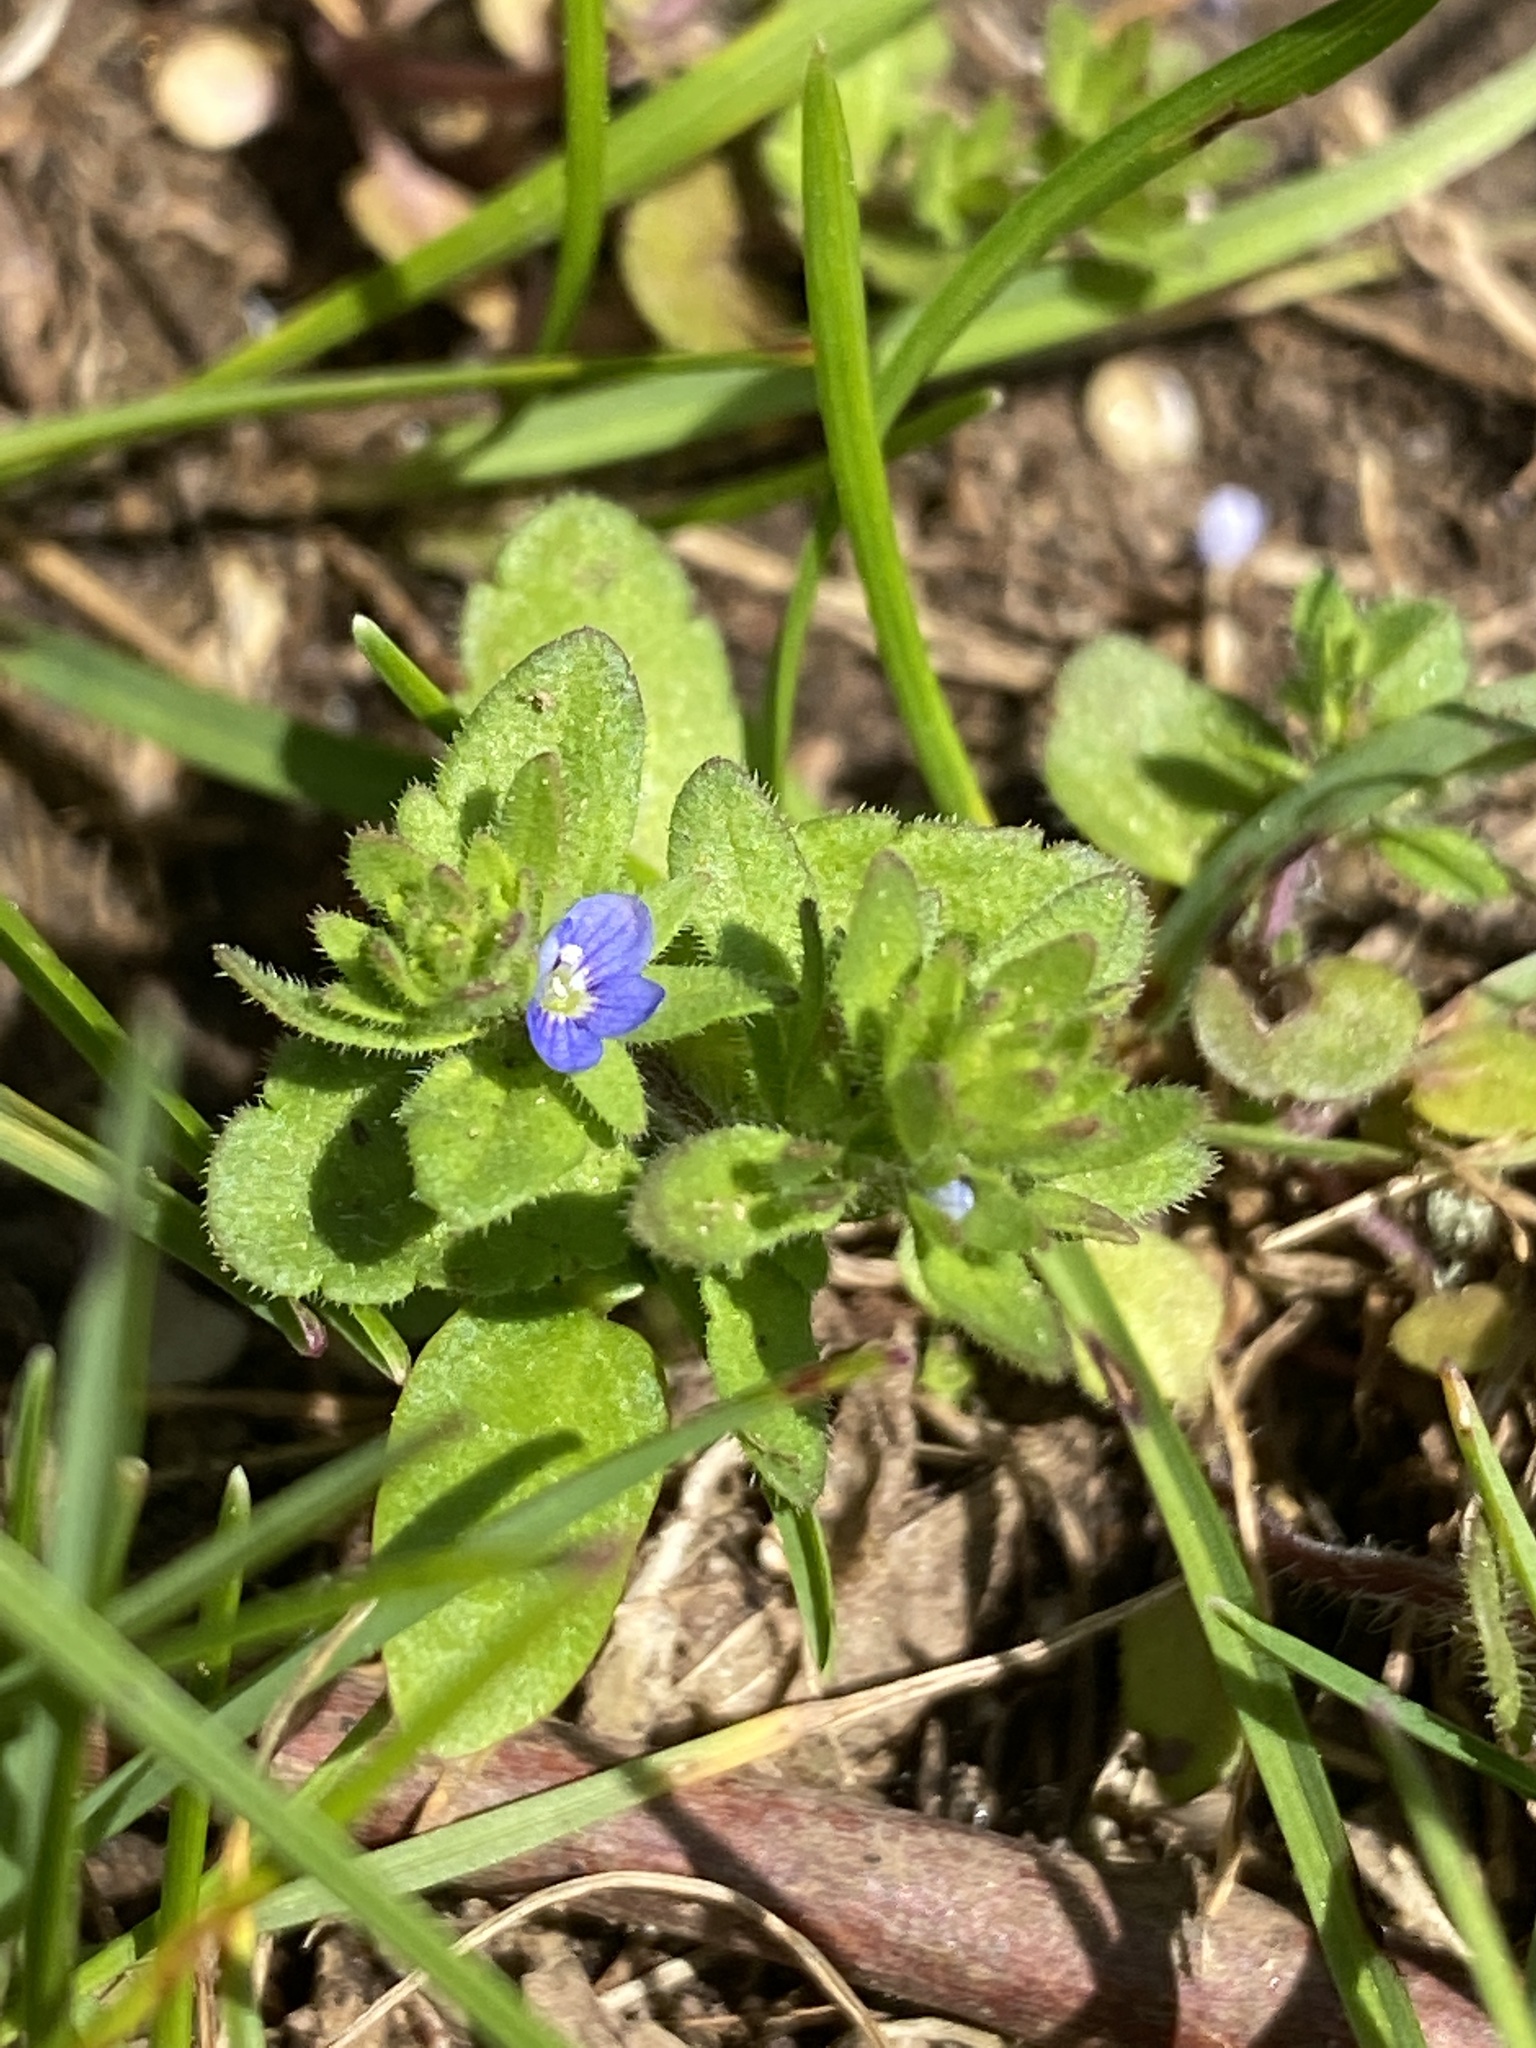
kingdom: Plantae
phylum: Tracheophyta
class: Magnoliopsida
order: Lamiales
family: Plantaginaceae
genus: Veronica
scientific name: Veronica arvensis
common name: Corn speedwell
